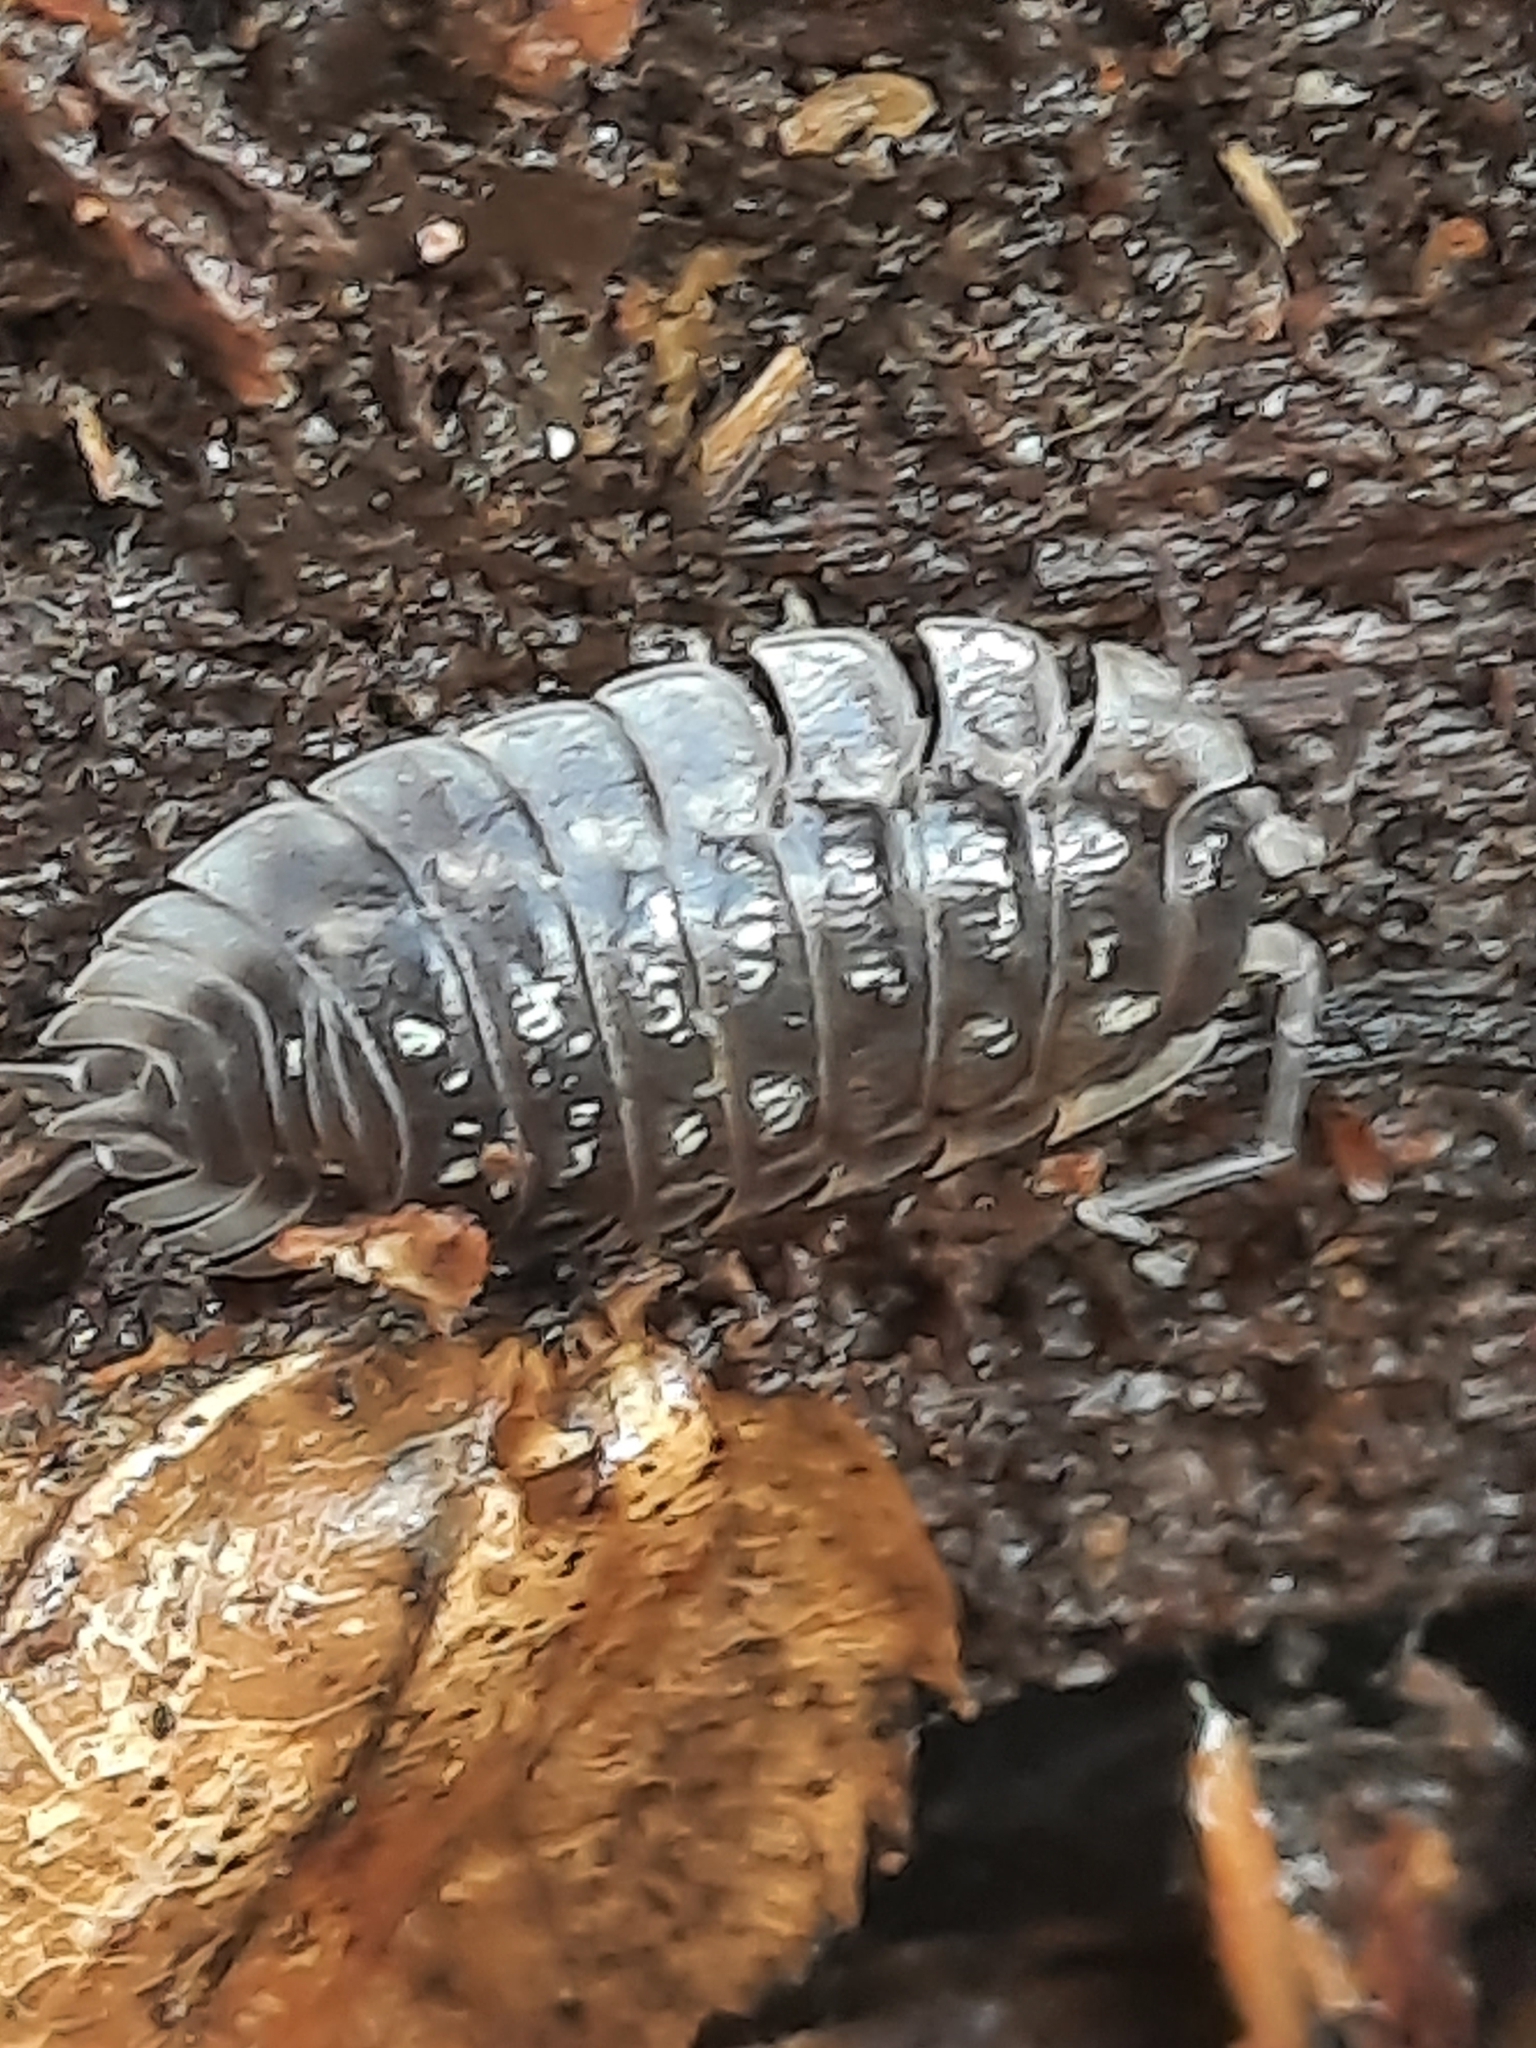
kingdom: Animalia
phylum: Arthropoda
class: Malacostraca
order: Isopoda
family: Oniscidae
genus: Oniscus
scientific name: Oniscus asellus
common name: Common shiny woodlouse
